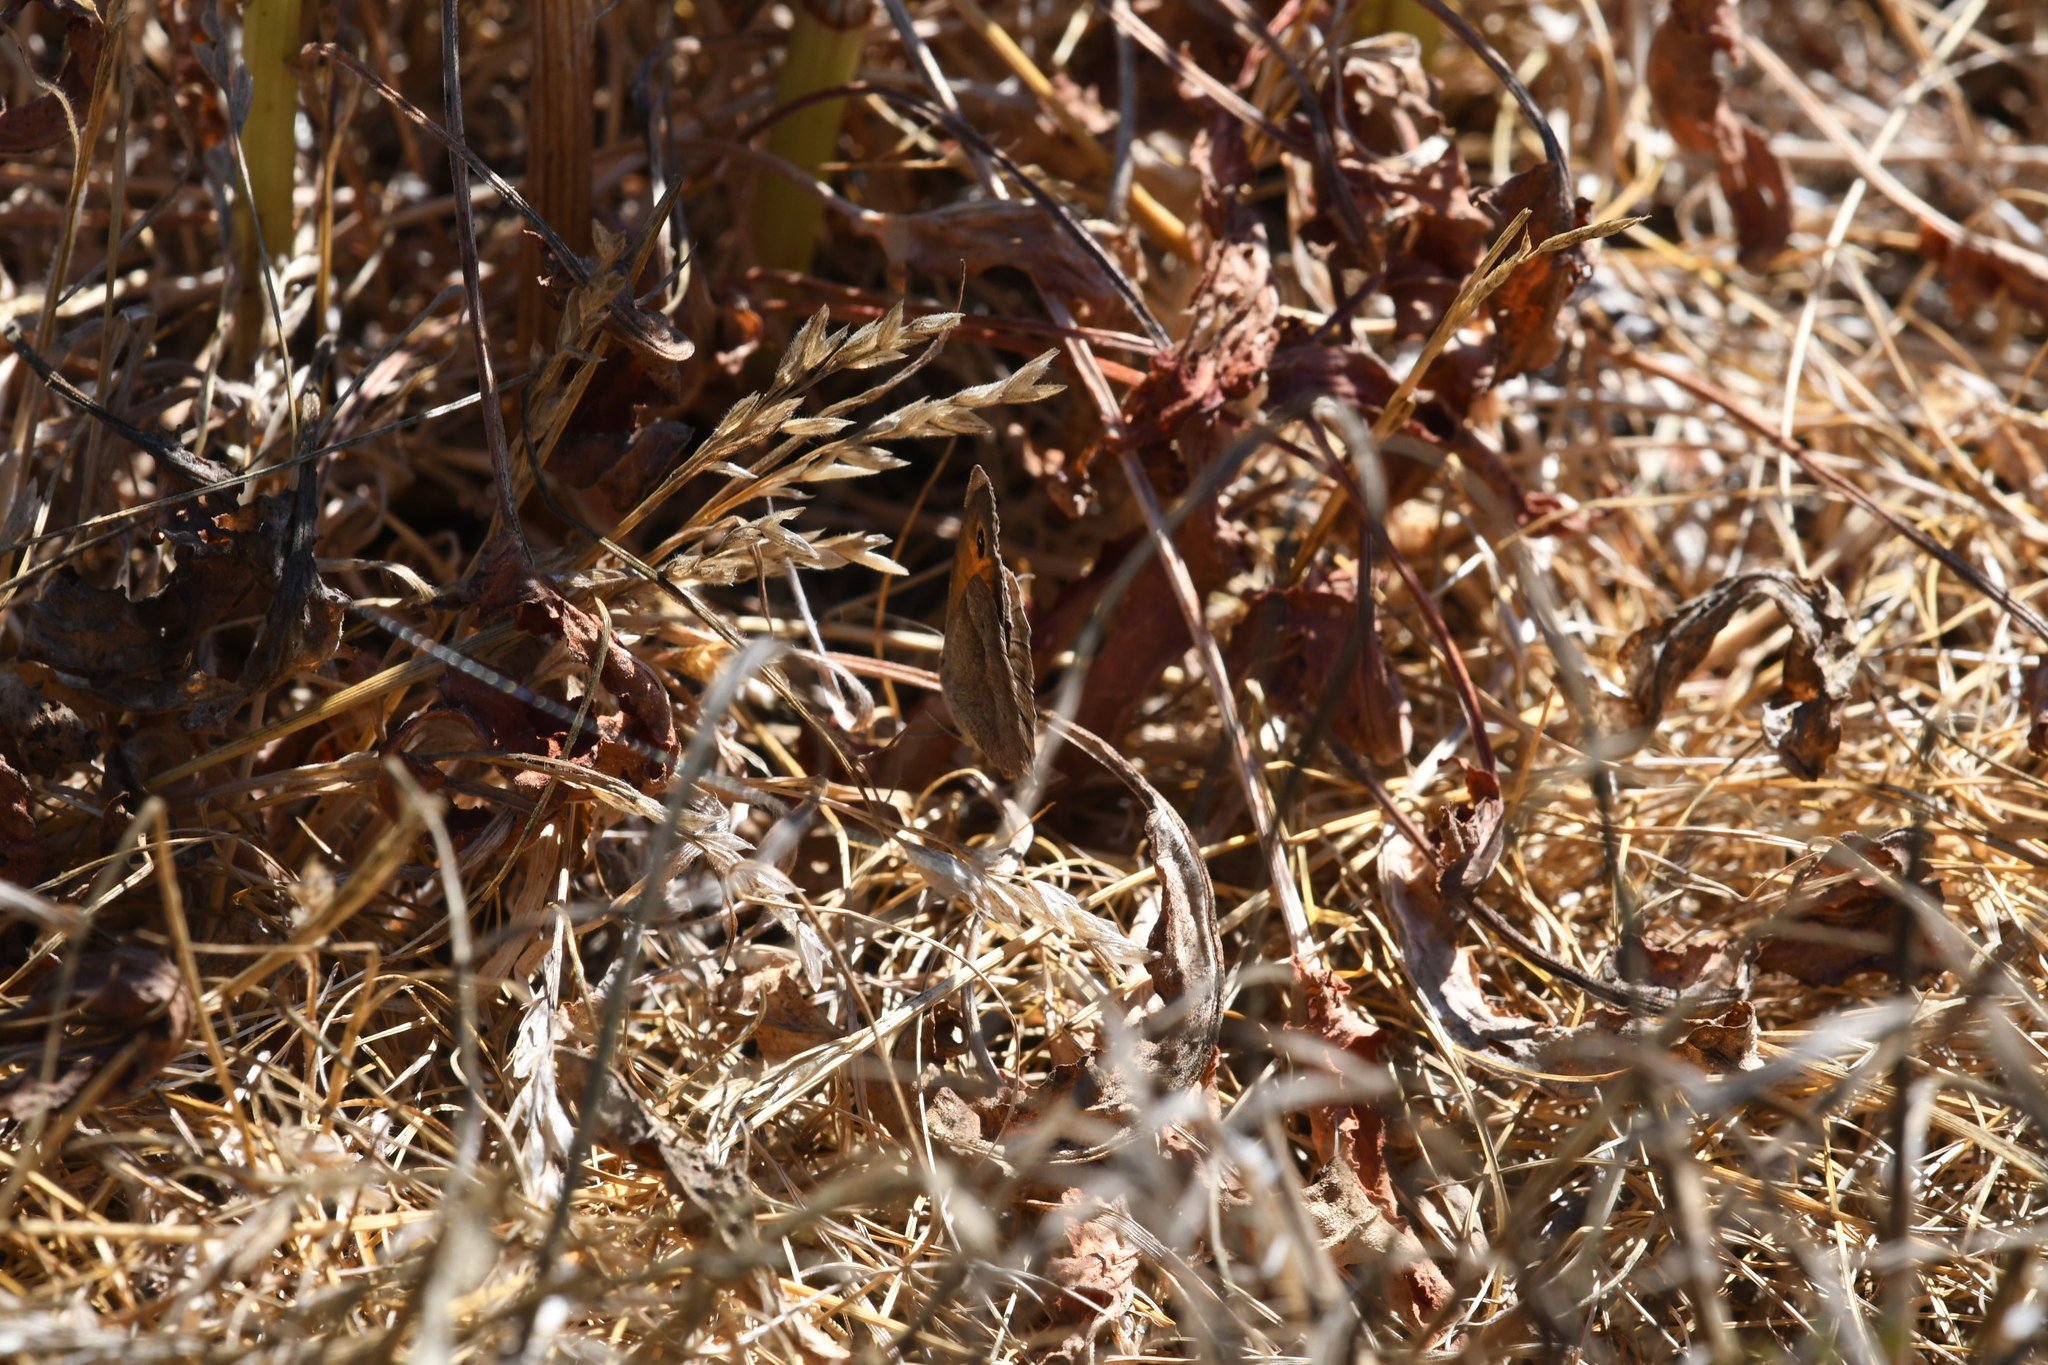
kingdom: Animalia
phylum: Arthropoda
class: Insecta
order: Lepidoptera
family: Nymphalidae
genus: Maniola
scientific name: Maniola jurtina
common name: Meadow brown
